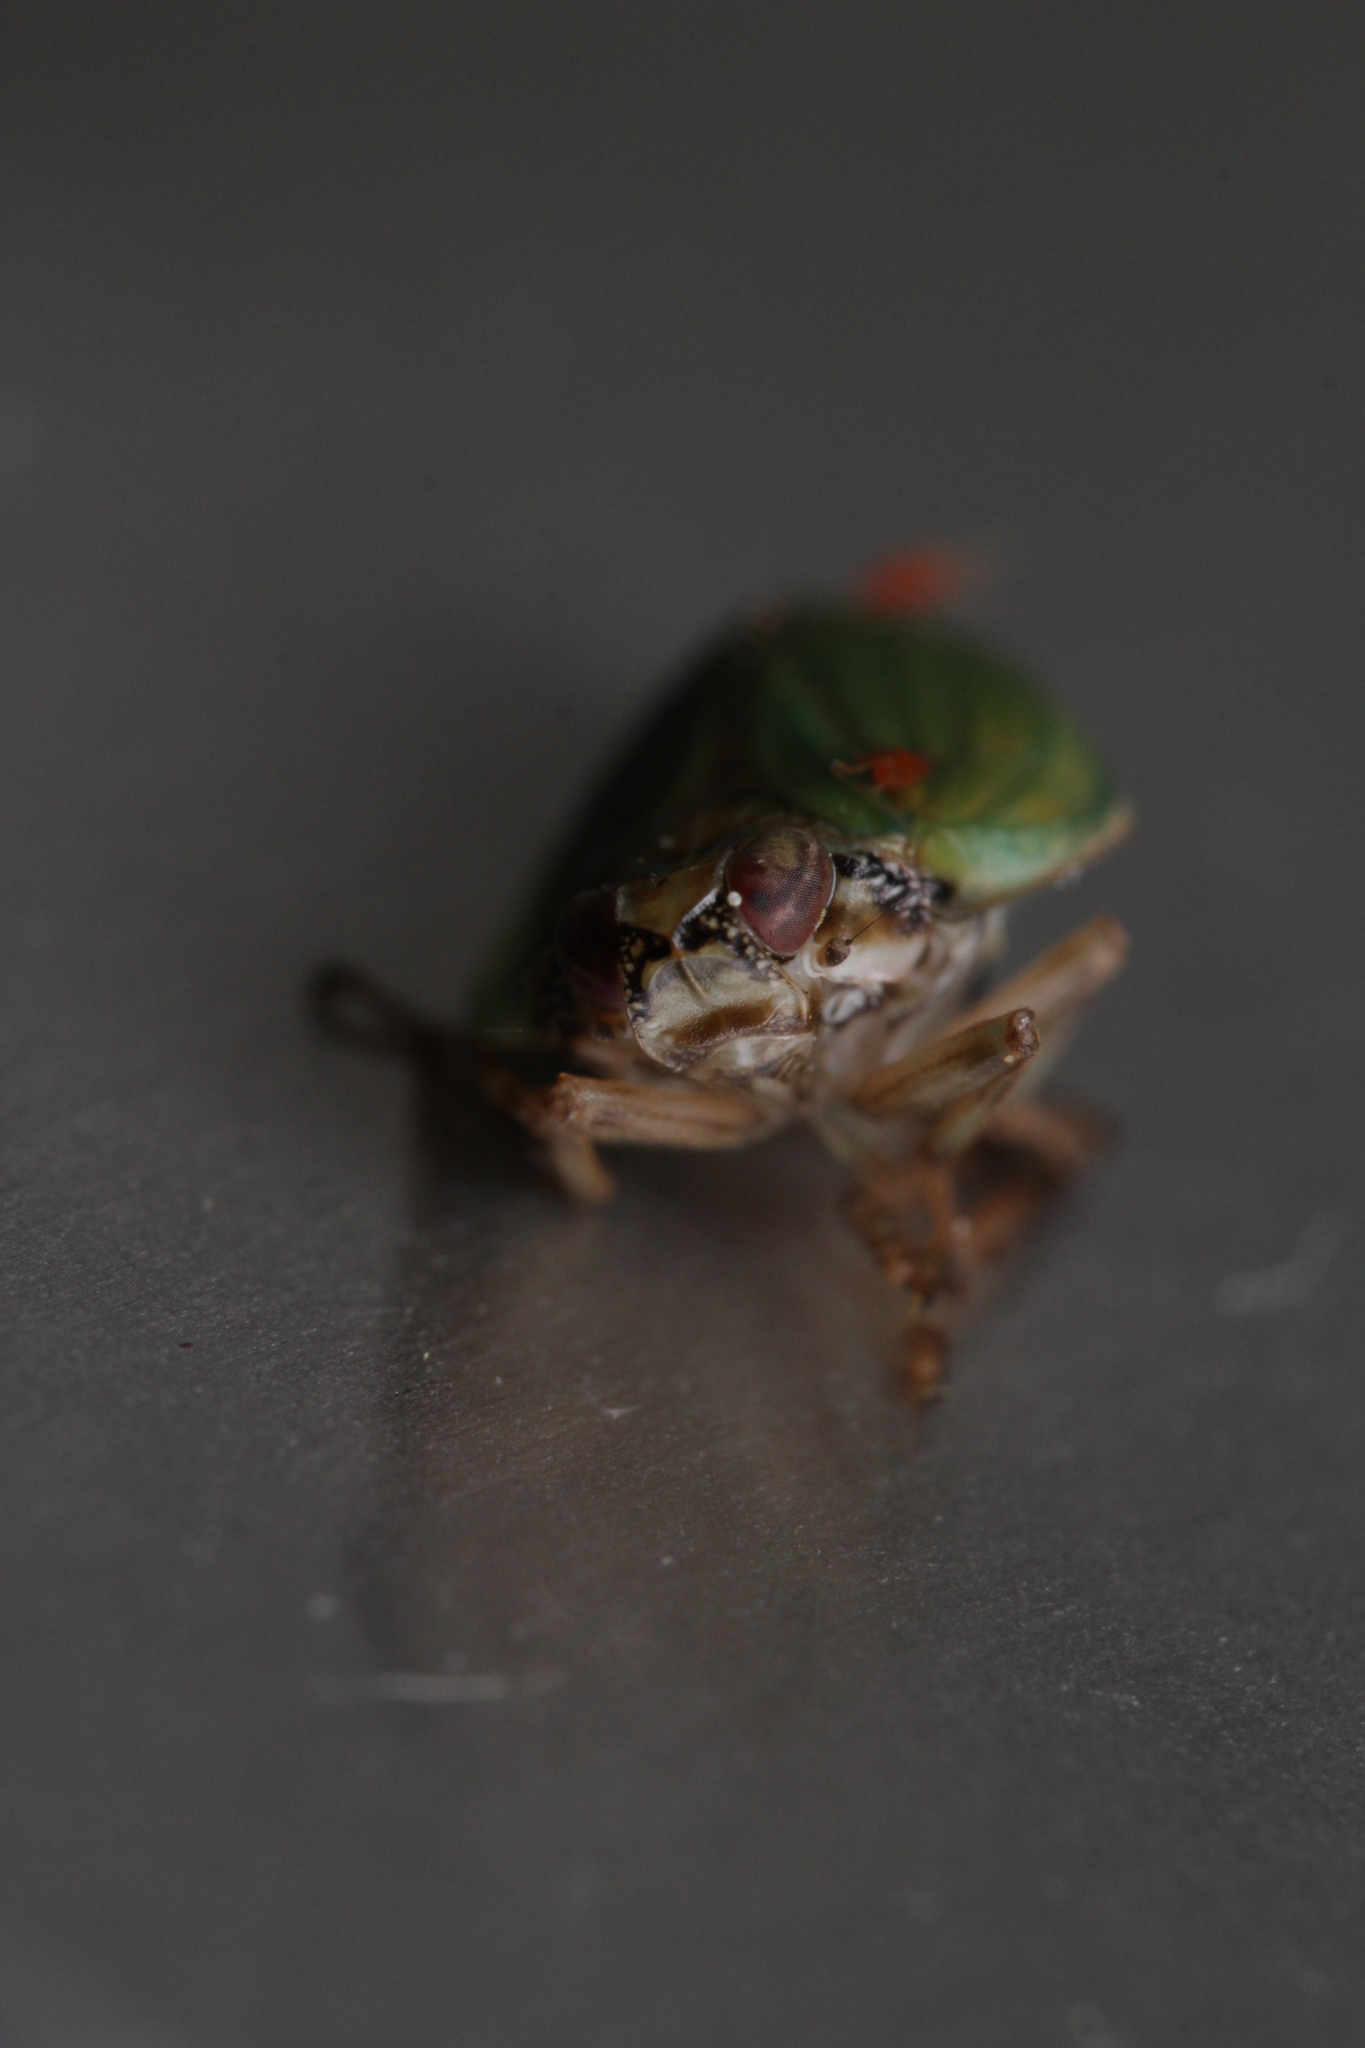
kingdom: Animalia
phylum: Arthropoda
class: Insecta
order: Hemiptera
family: Issidae
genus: Issus
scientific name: Issus lauri
